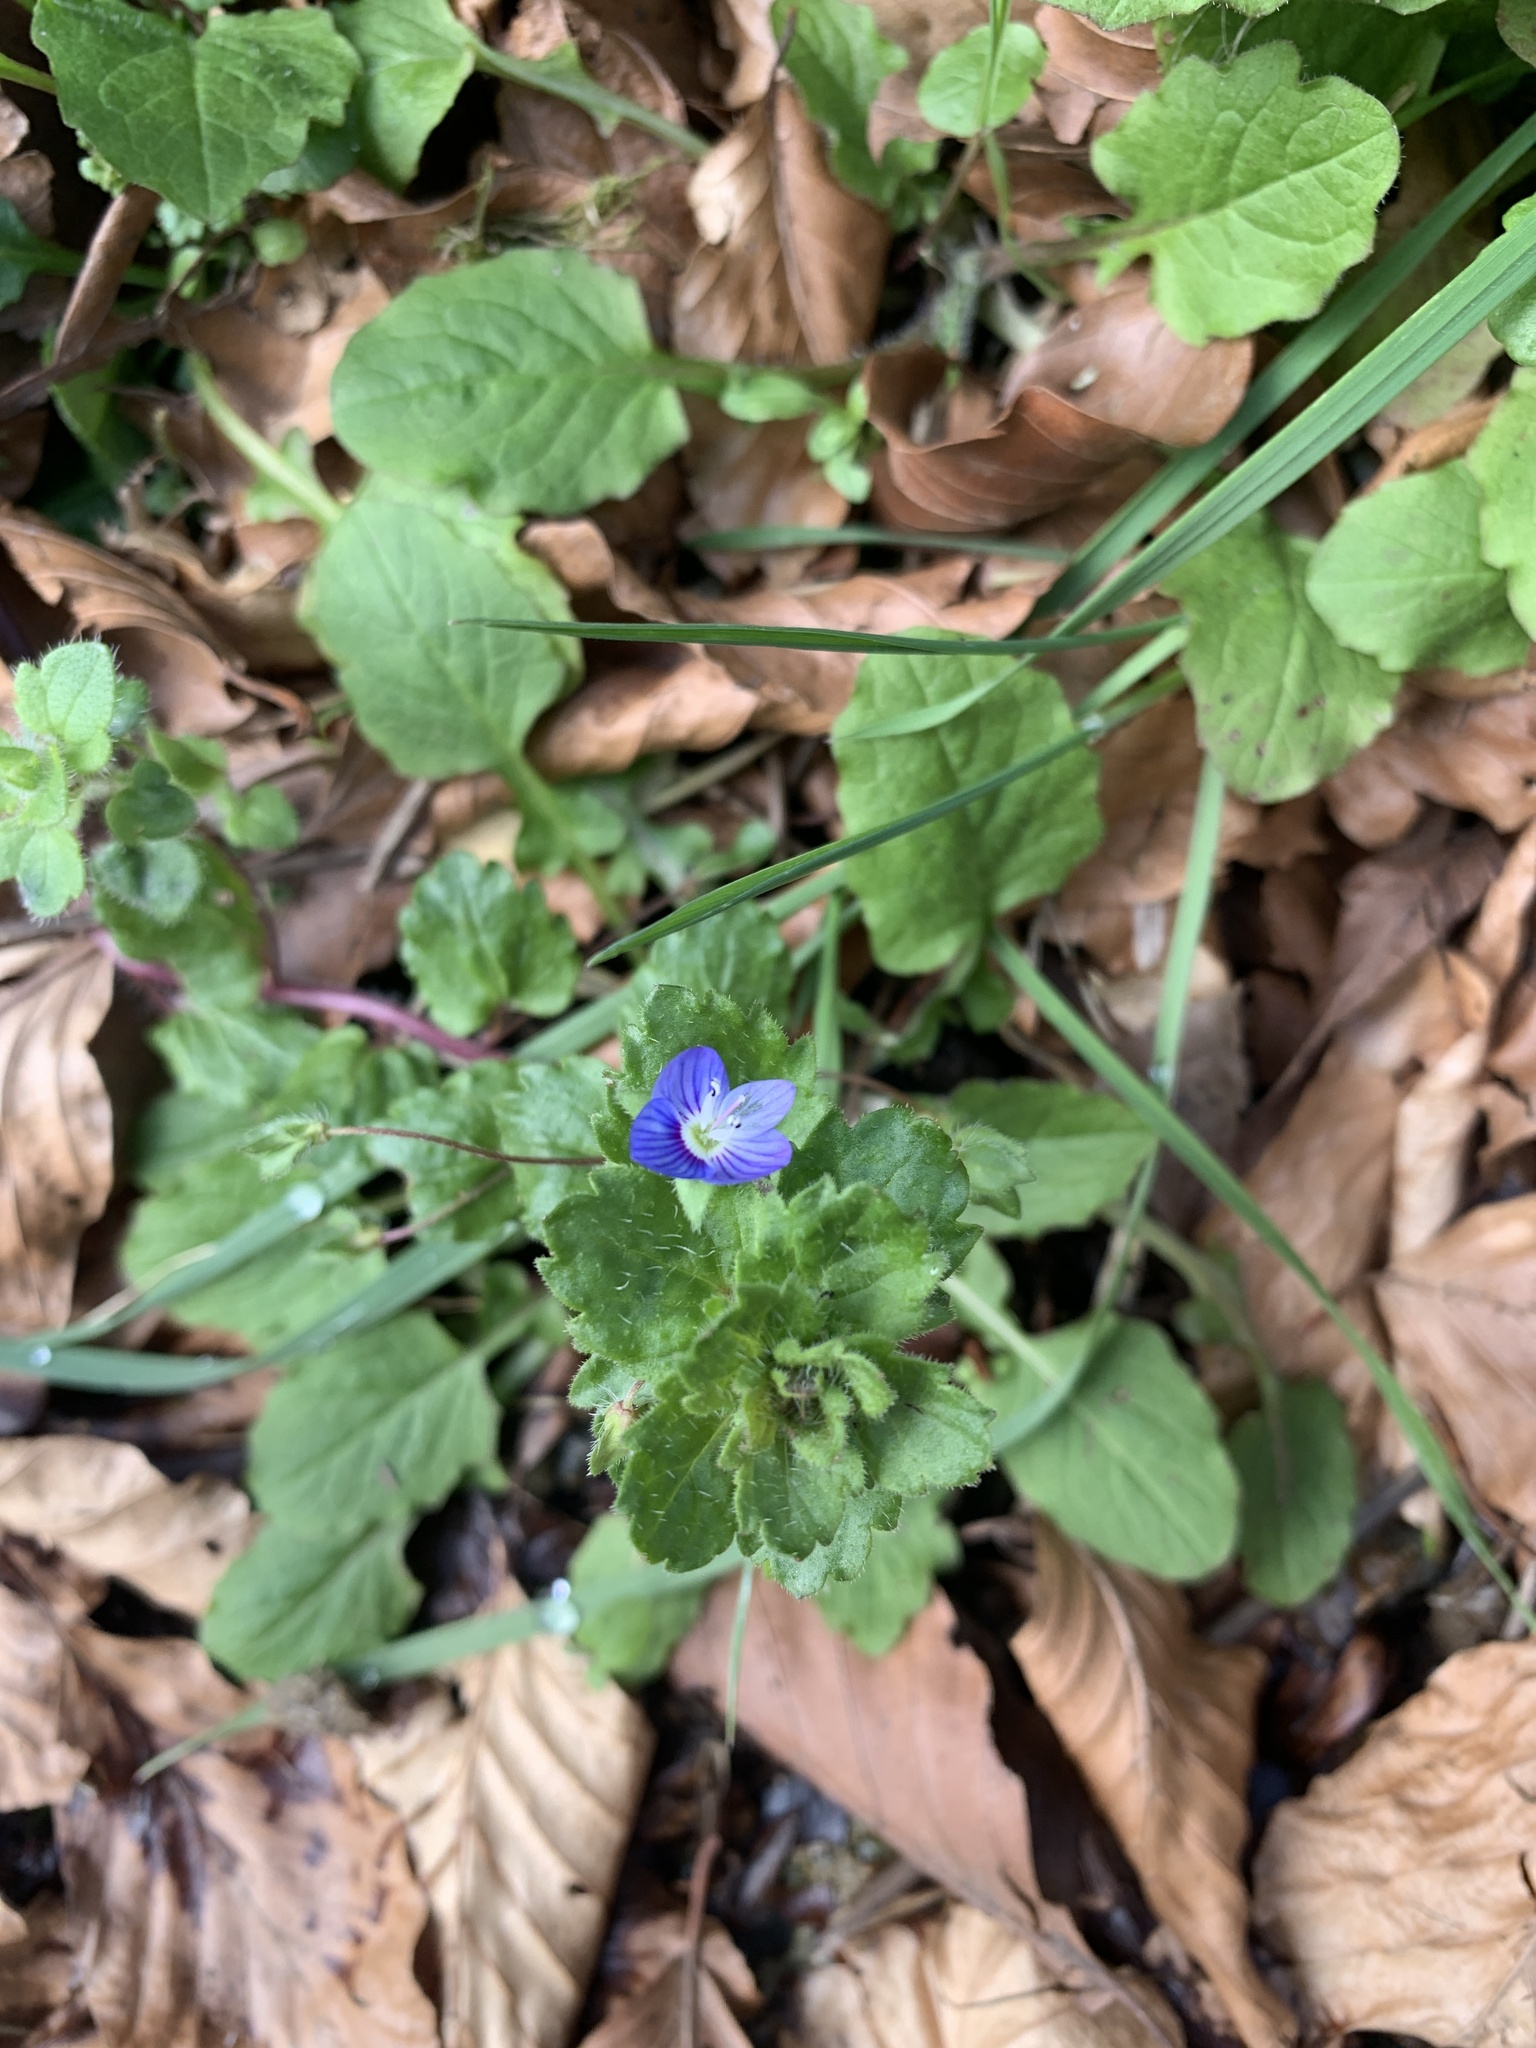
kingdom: Plantae
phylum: Tracheophyta
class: Magnoliopsida
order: Lamiales
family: Plantaginaceae
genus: Veronica
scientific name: Veronica persica
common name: Common field-speedwell
